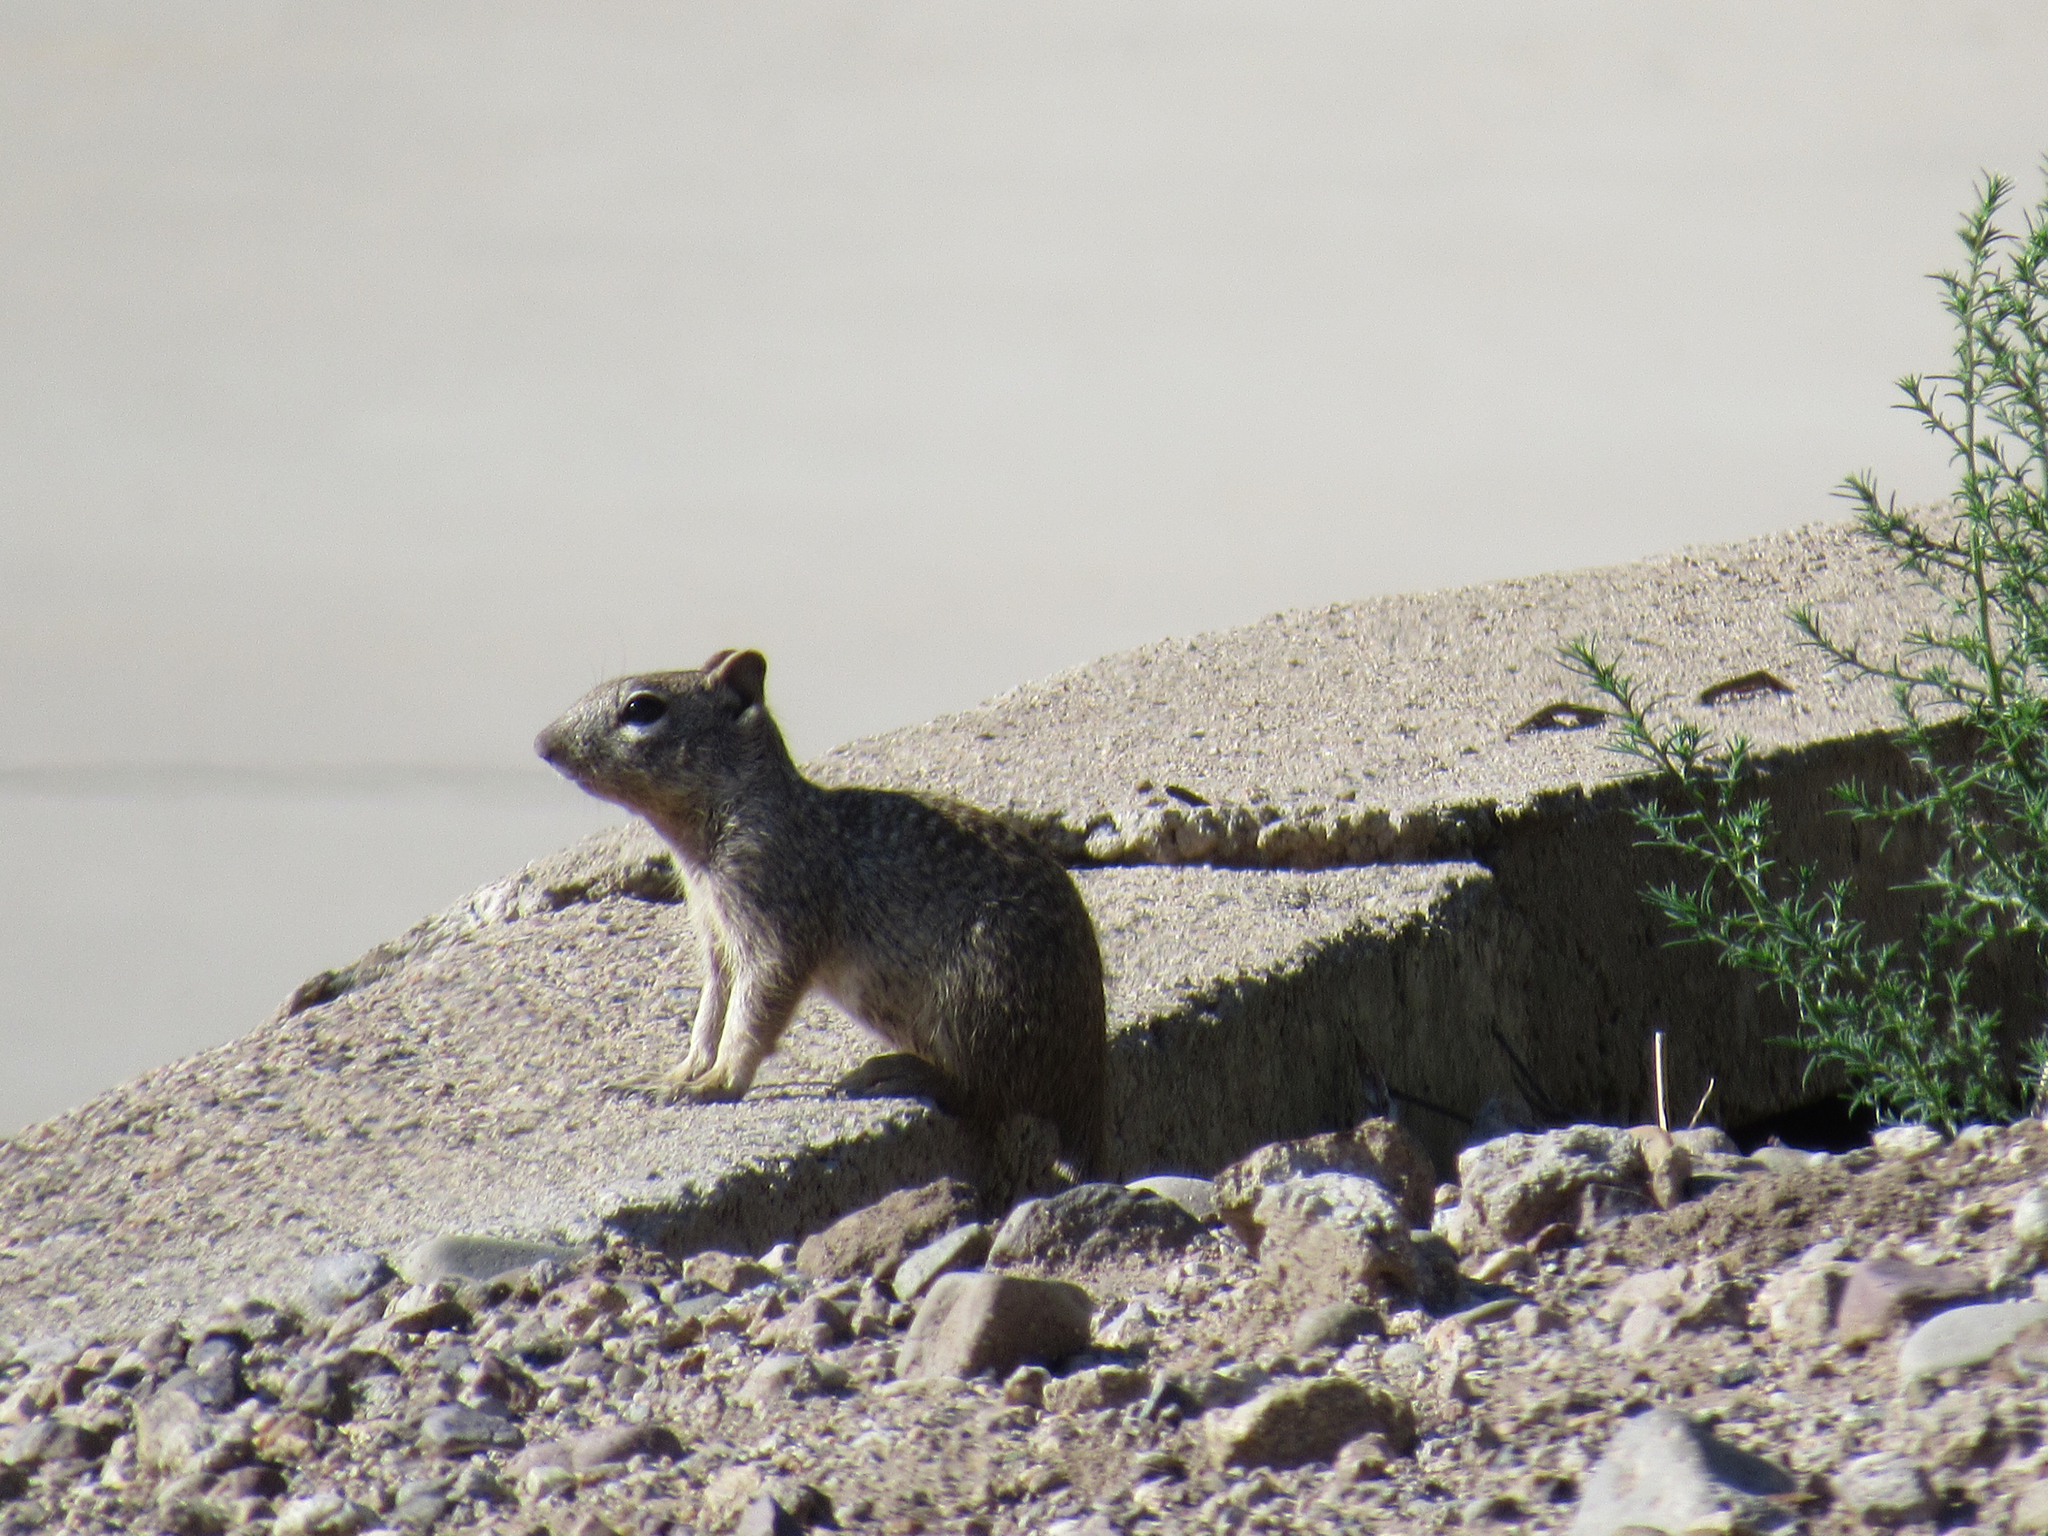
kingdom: Animalia
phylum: Chordata
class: Mammalia
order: Rodentia
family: Sciuridae
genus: Xerospermophilus
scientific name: Xerospermophilus tereticaudus
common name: Round-tailed ground squirrel
